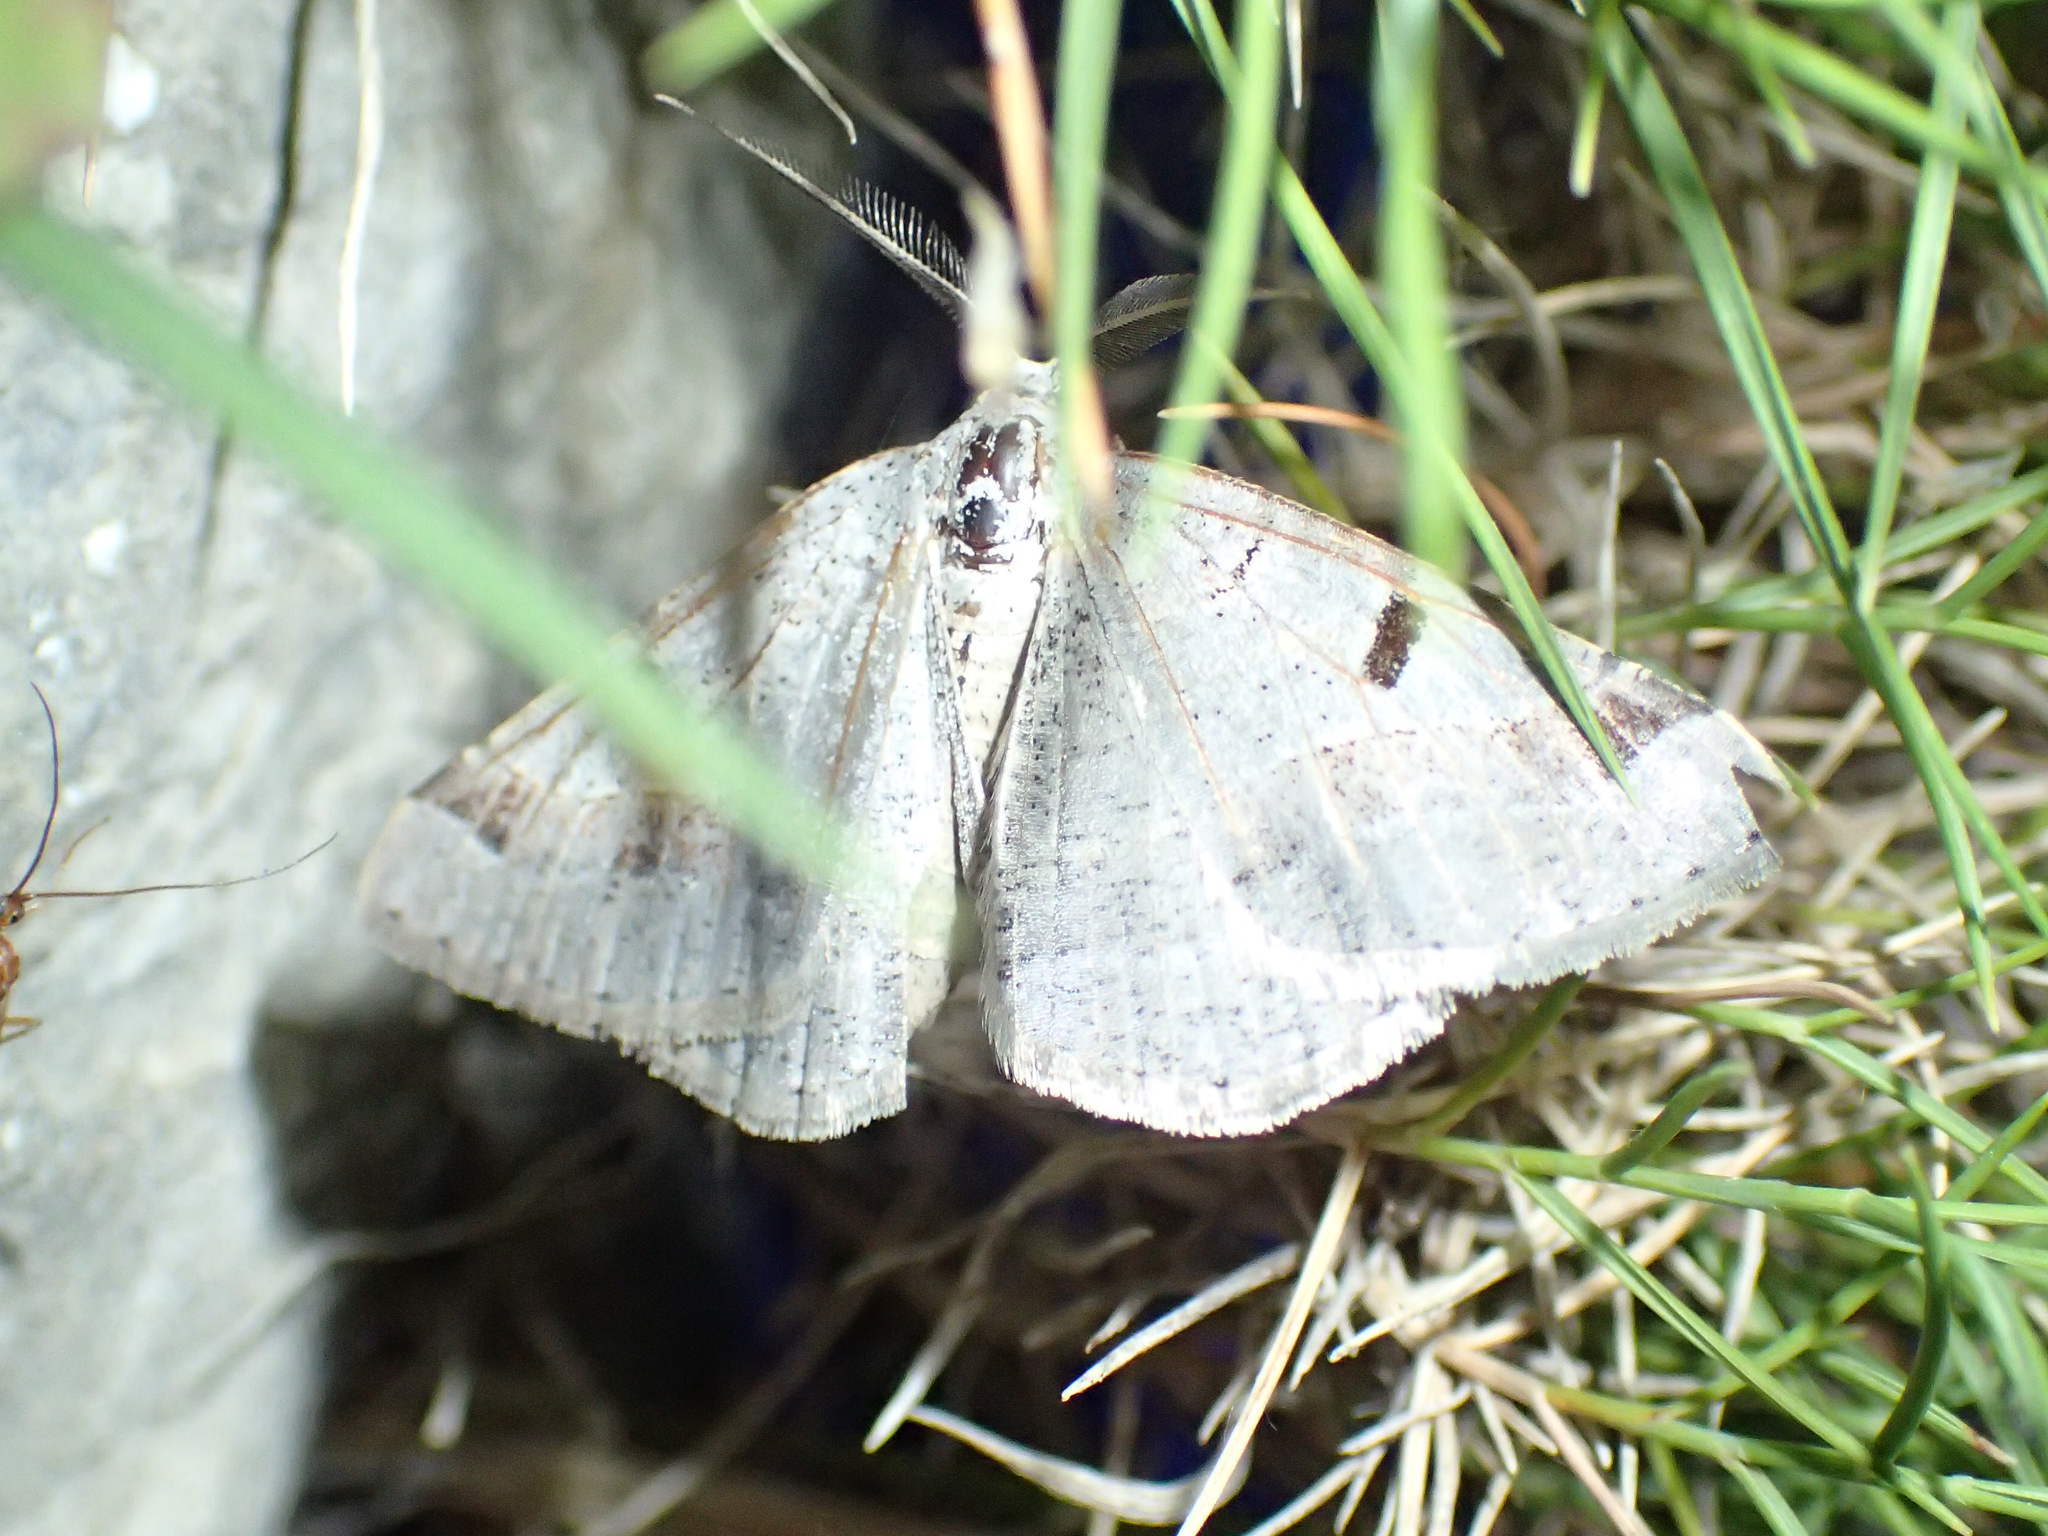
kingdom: Animalia
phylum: Arthropoda
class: Insecta
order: Lepidoptera
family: Geometridae
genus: Itame
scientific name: Itame vincularia
